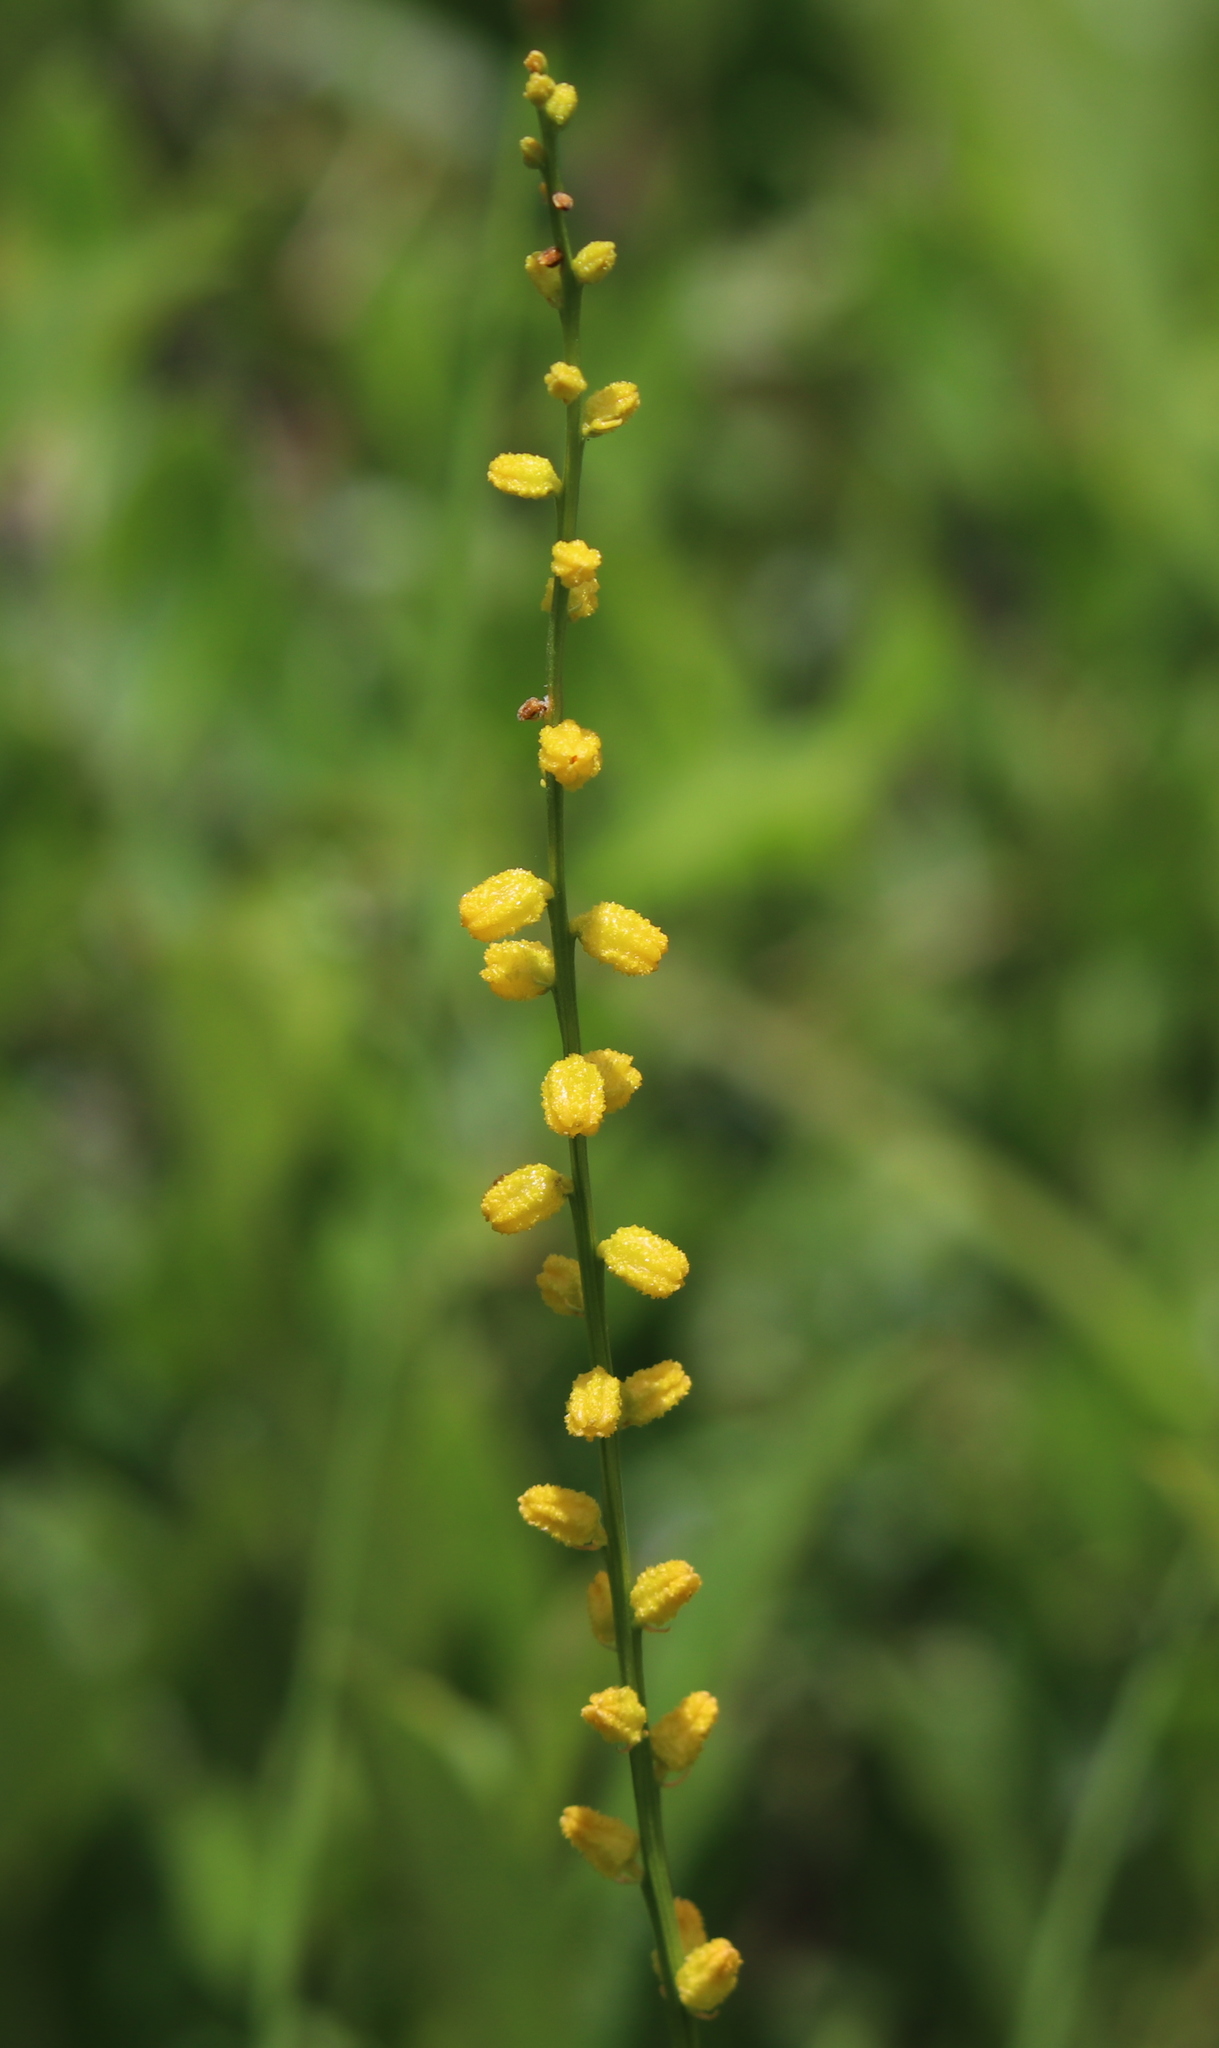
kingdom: Plantae
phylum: Tracheophyta
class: Liliopsida
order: Dioscoreales
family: Nartheciaceae
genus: Aletris
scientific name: Aletris aurea
